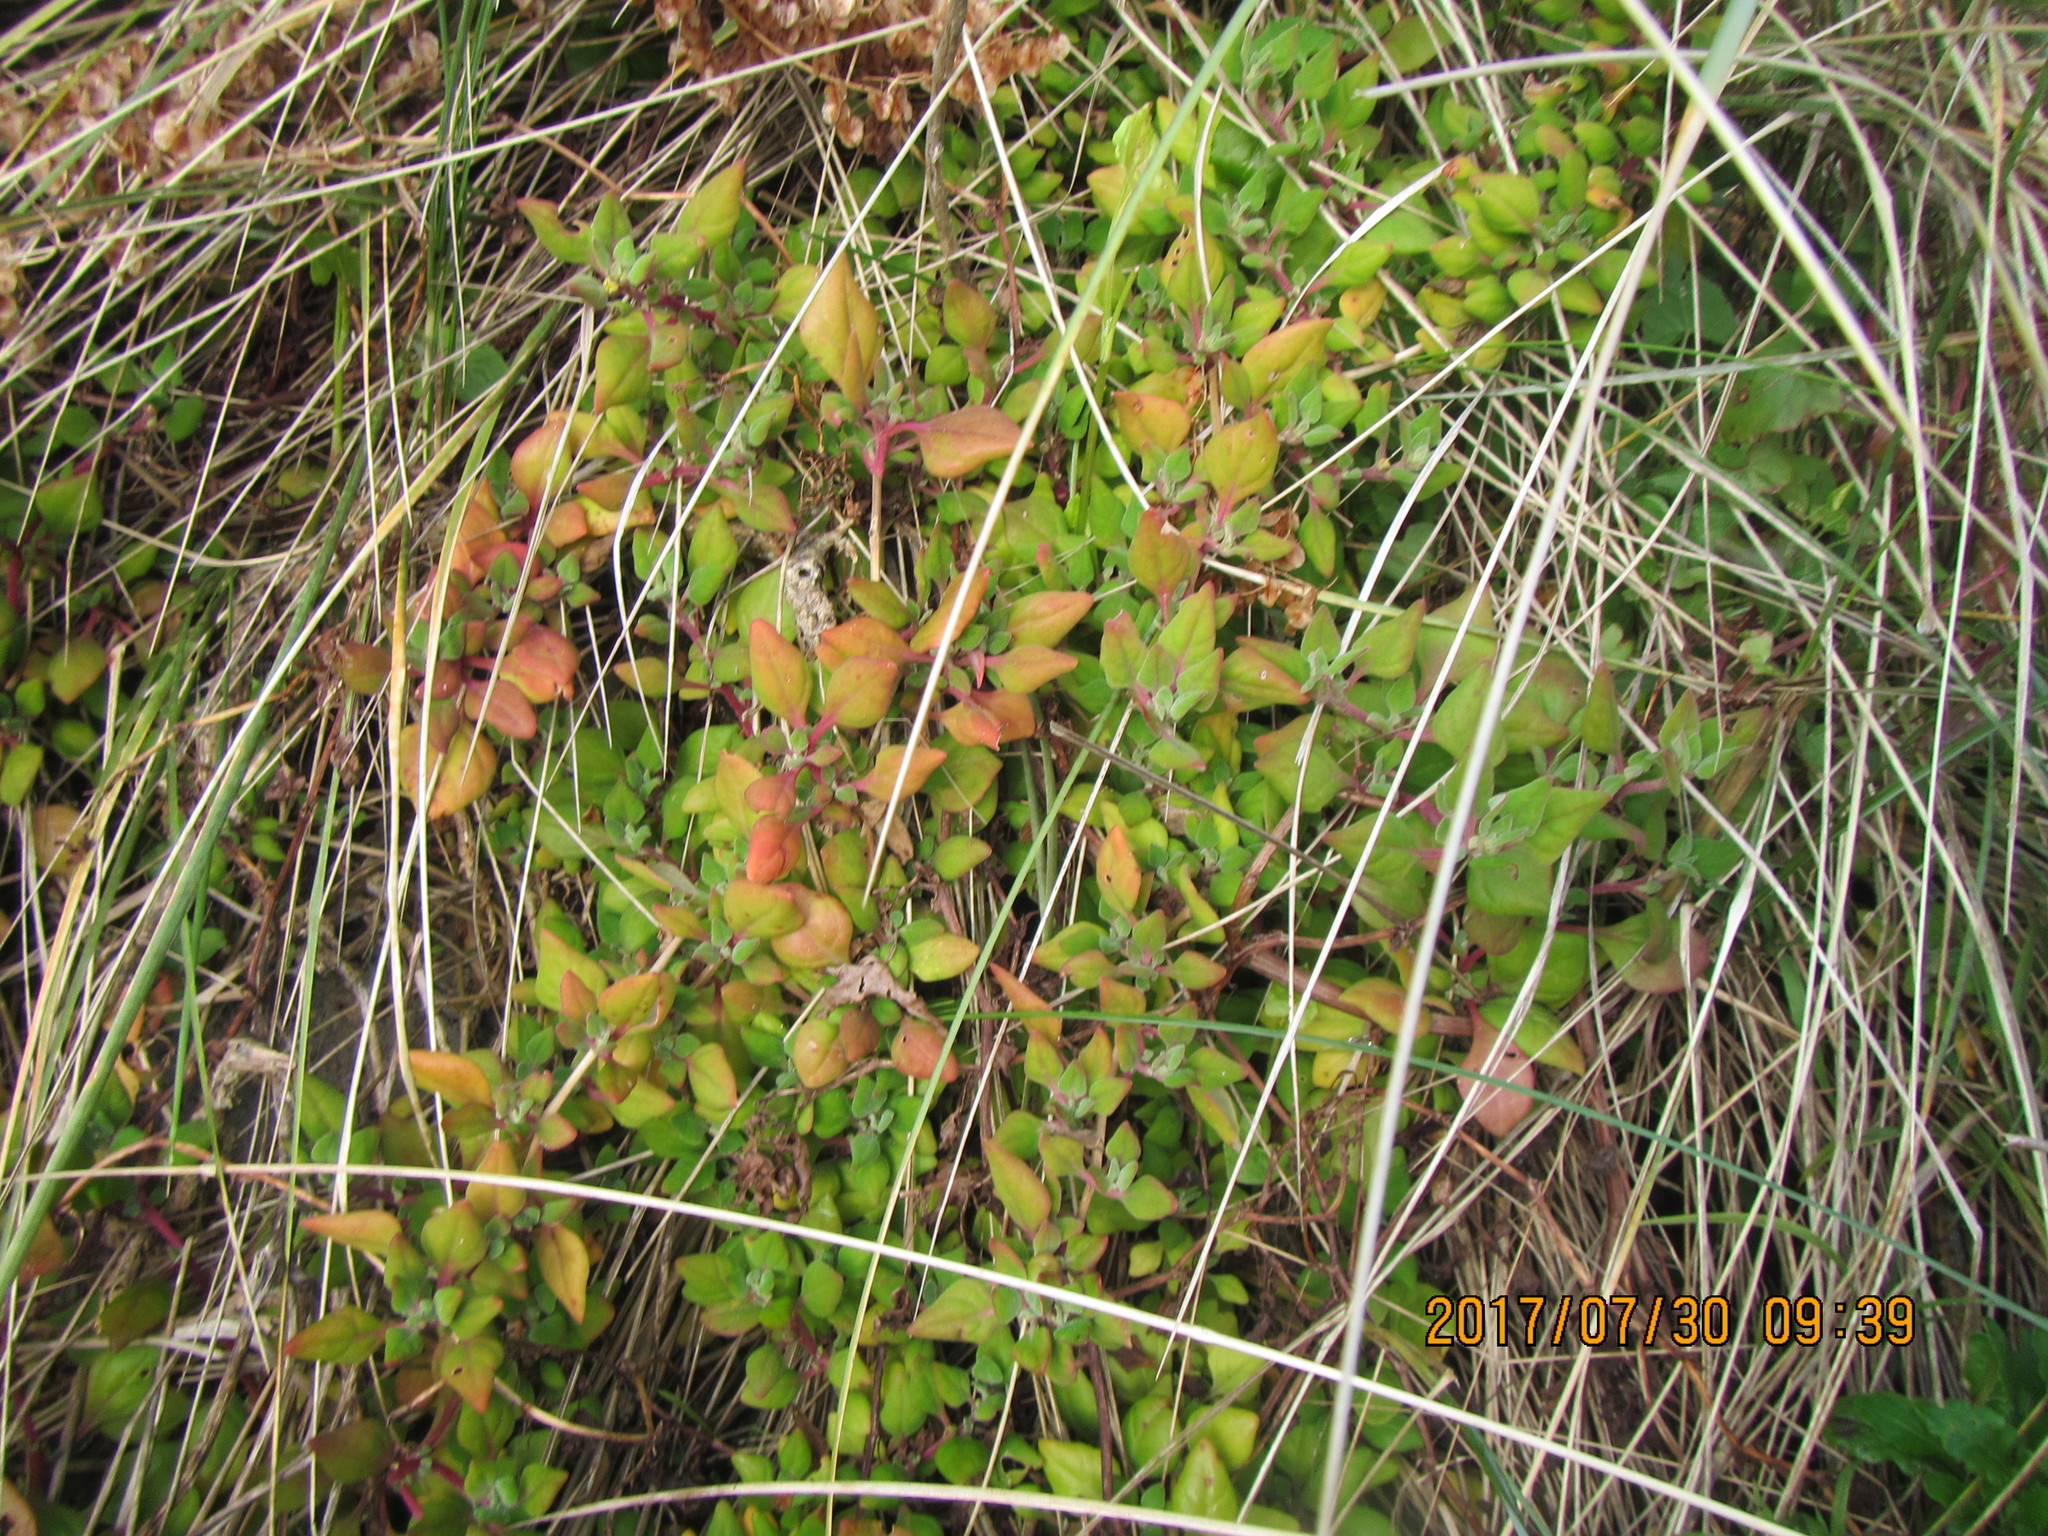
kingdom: Plantae
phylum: Tracheophyta
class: Magnoliopsida
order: Caryophyllales
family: Aizoaceae
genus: Tetragonia
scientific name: Tetragonia implexicoma
